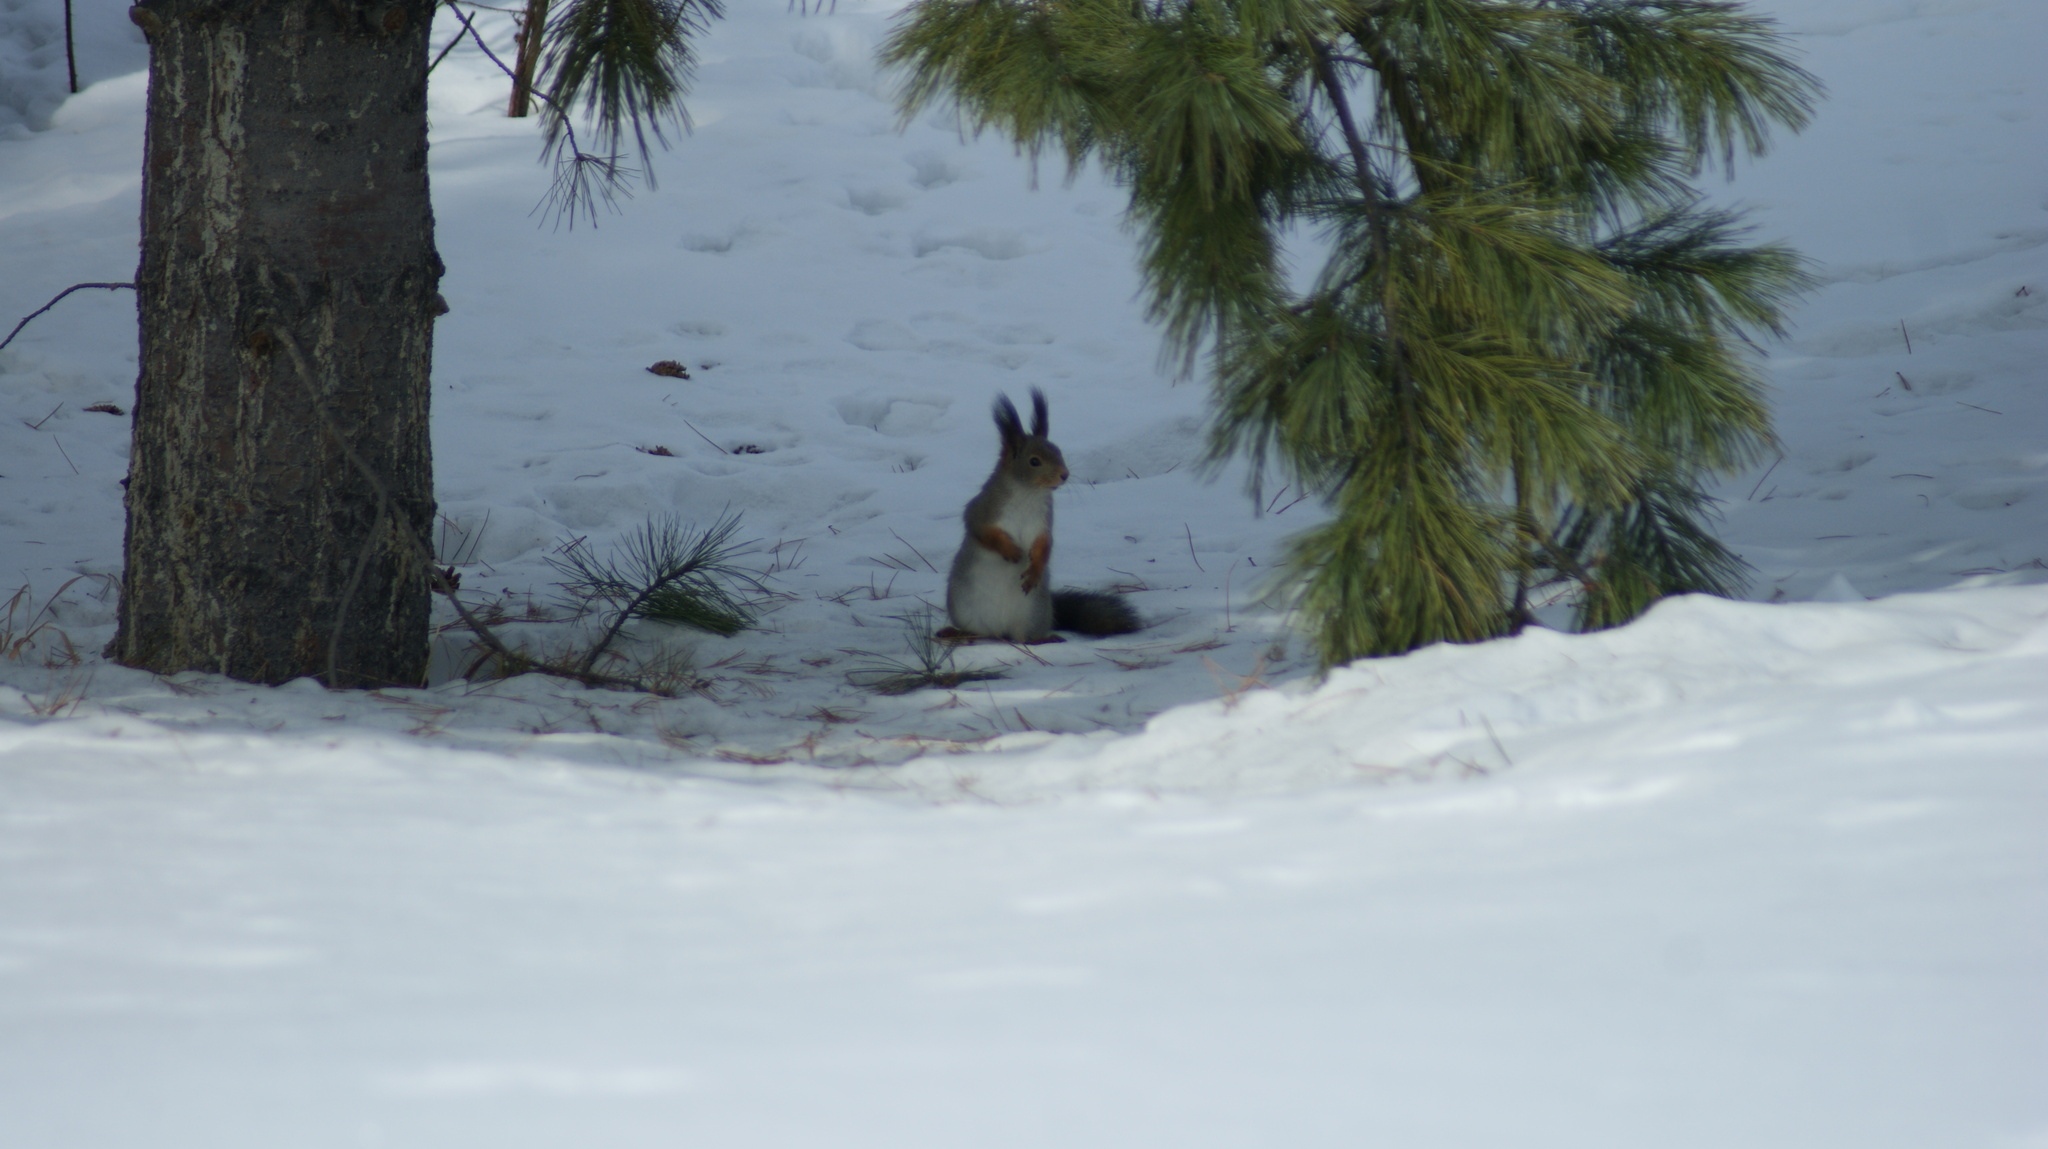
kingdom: Animalia
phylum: Chordata
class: Mammalia
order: Rodentia
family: Sciuridae
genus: Sciurus
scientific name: Sciurus vulgaris
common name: Eurasian red squirrel
